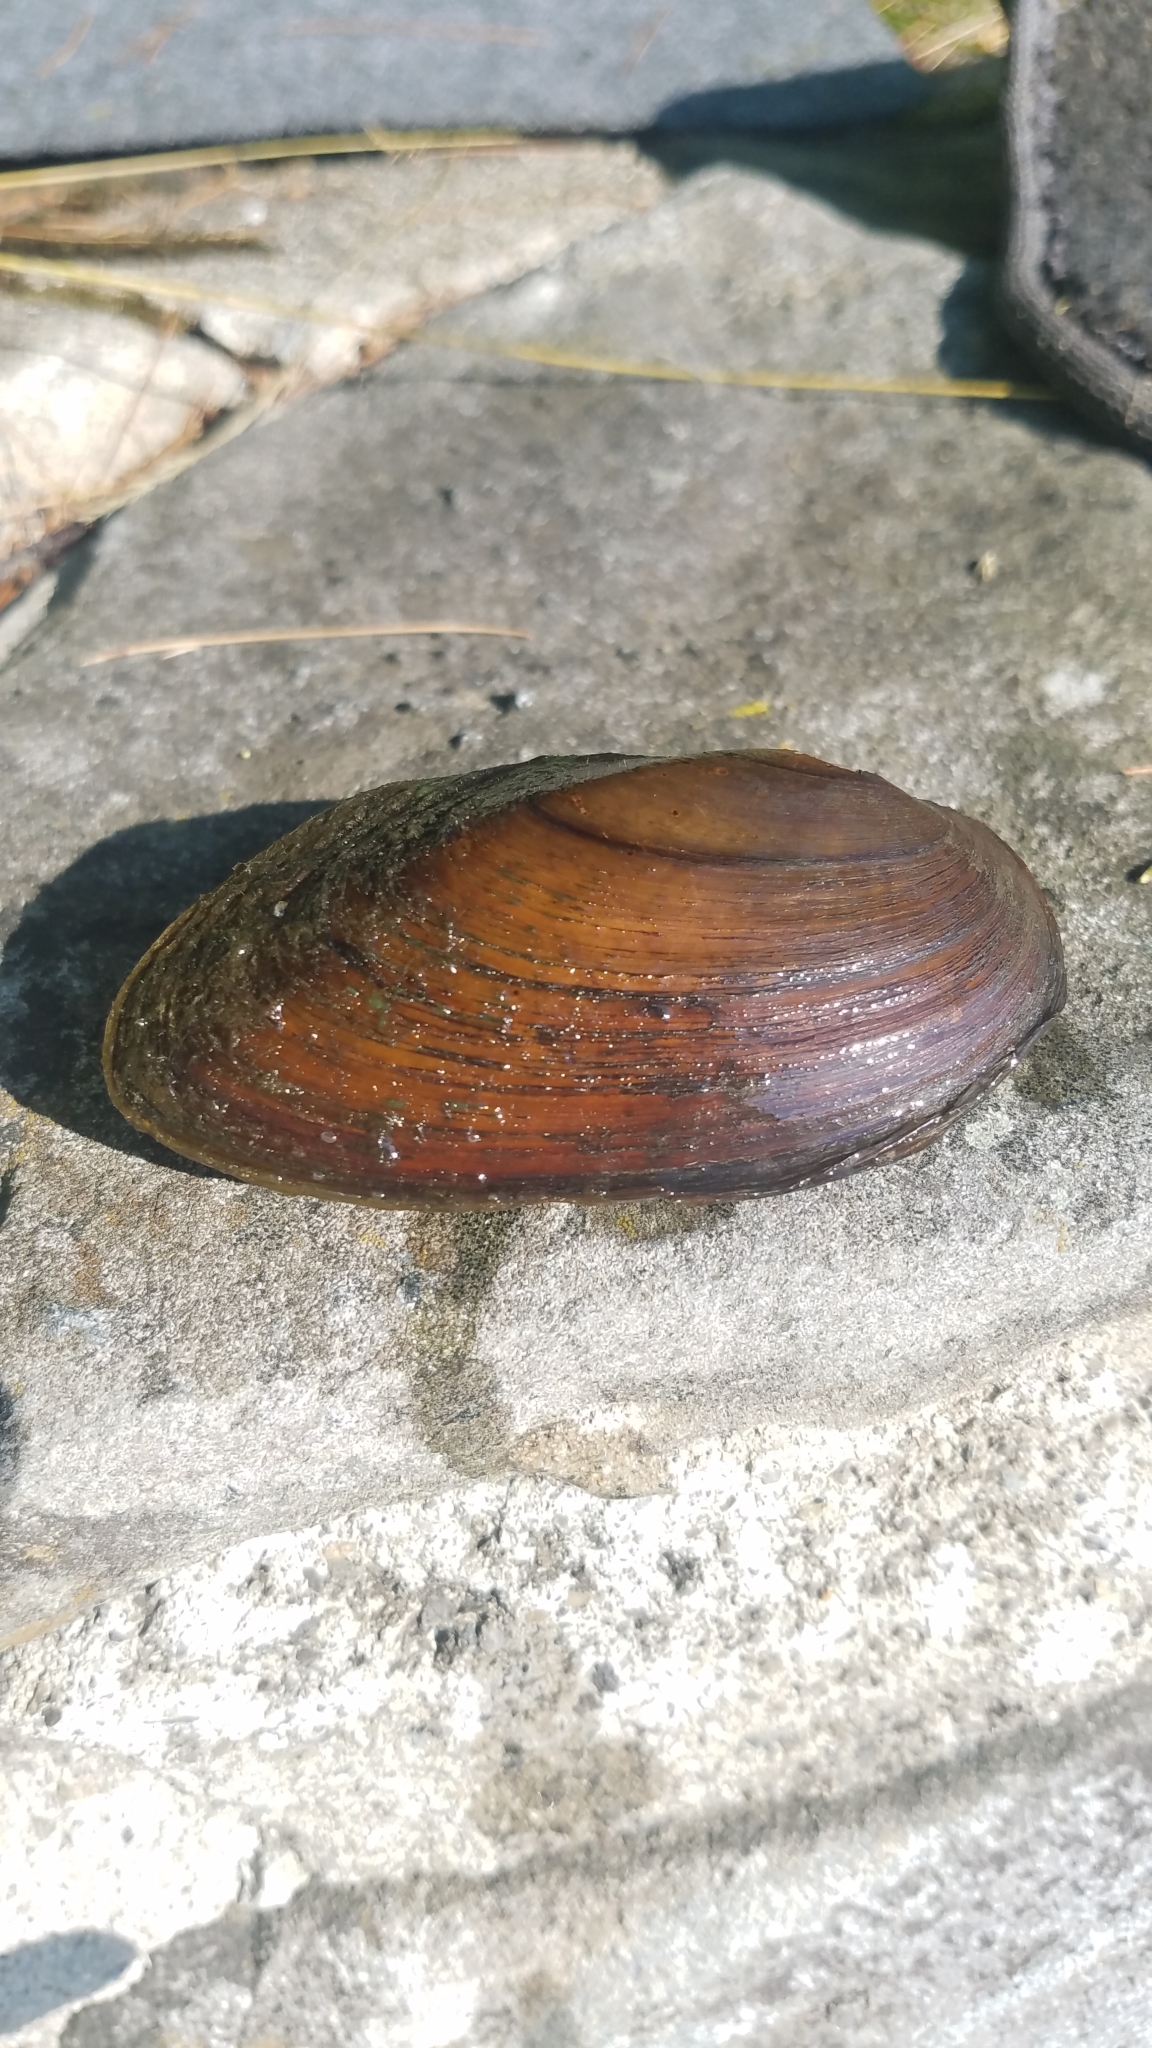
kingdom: Animalia
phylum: Mollusca
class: Bivalvia
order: Unionida
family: Unionidae
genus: Elliptio
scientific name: Elliptio complanata
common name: Eastern elliptio
